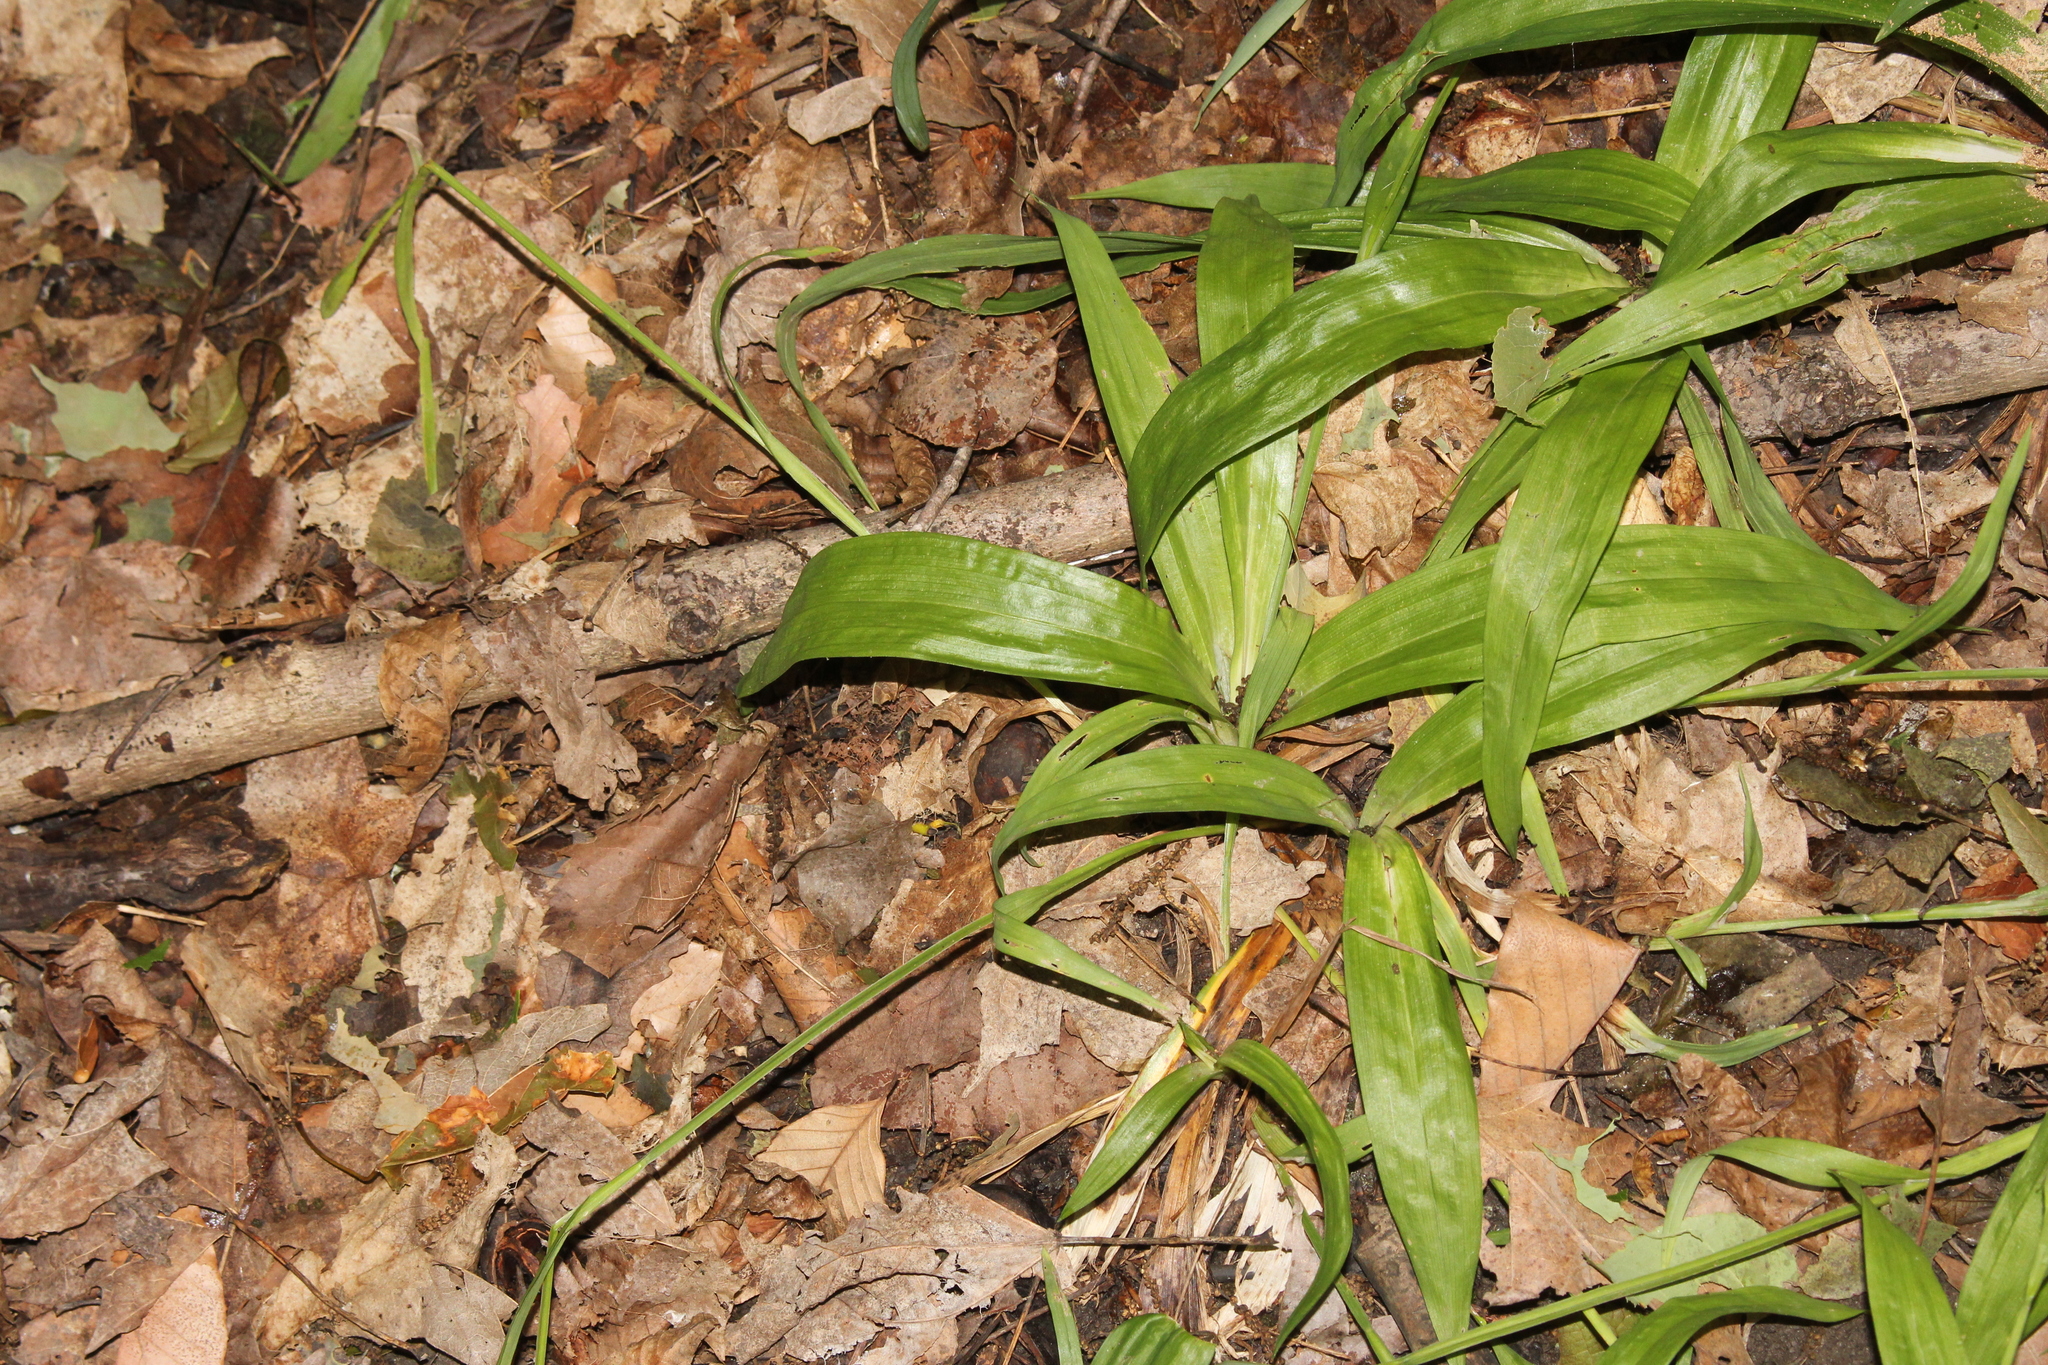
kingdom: Plantae
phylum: Tracheophyta
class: Liliopsida
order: Poales
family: Cyperaceae
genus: Carex
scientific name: Carex albursina
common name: Blunt-scale wood sedge
